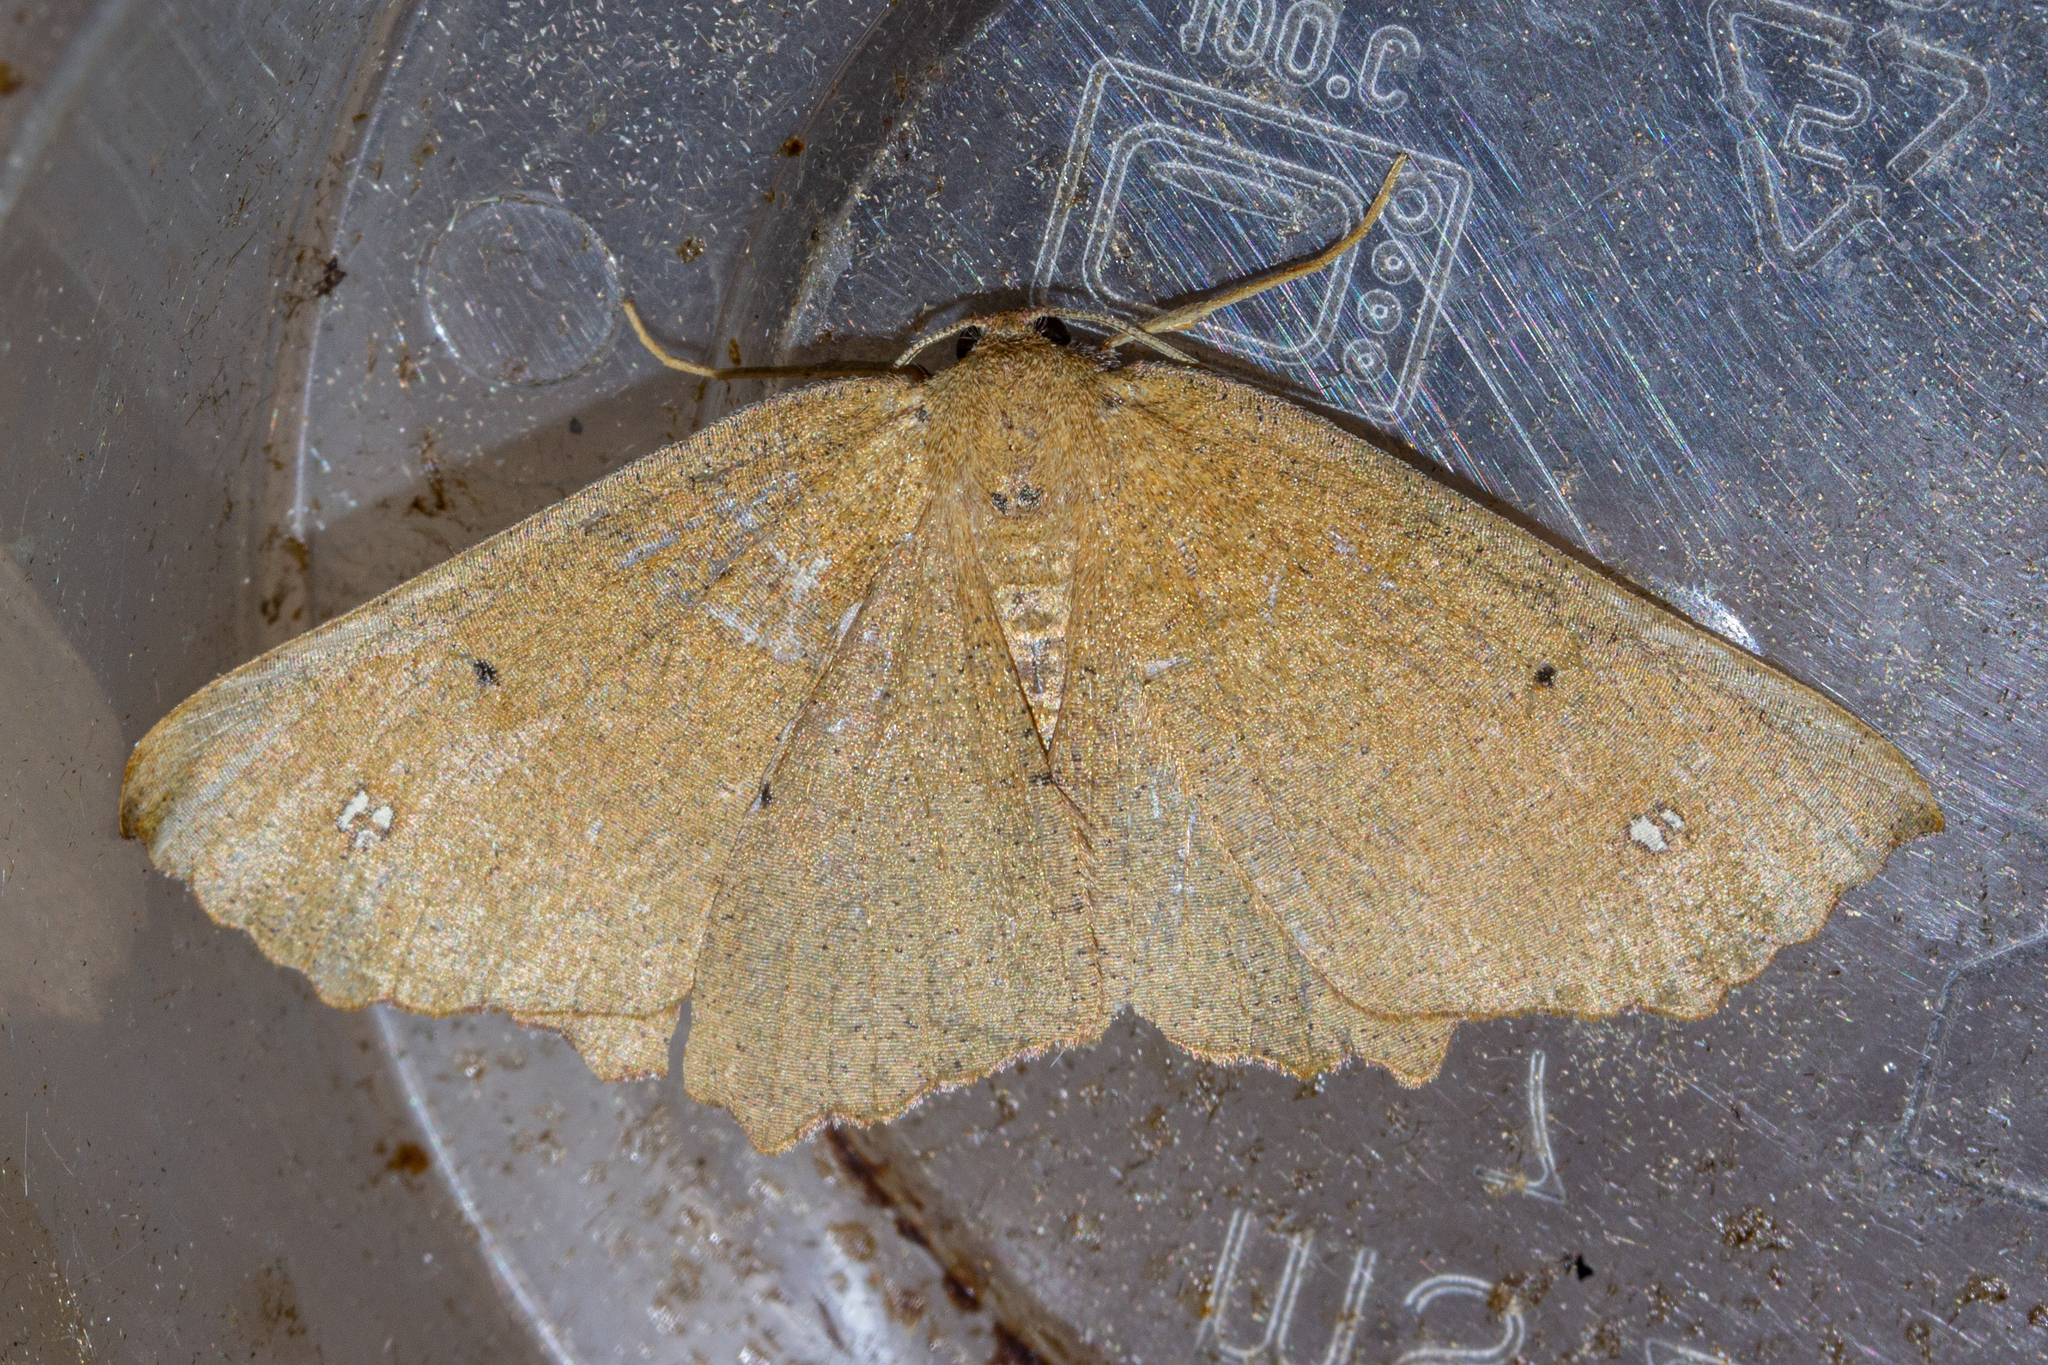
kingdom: Animalia
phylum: Arthropoda
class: Insecta
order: Lepidoptera
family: Geometridae
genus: Xyridacma
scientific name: Xyridacma ustaria
